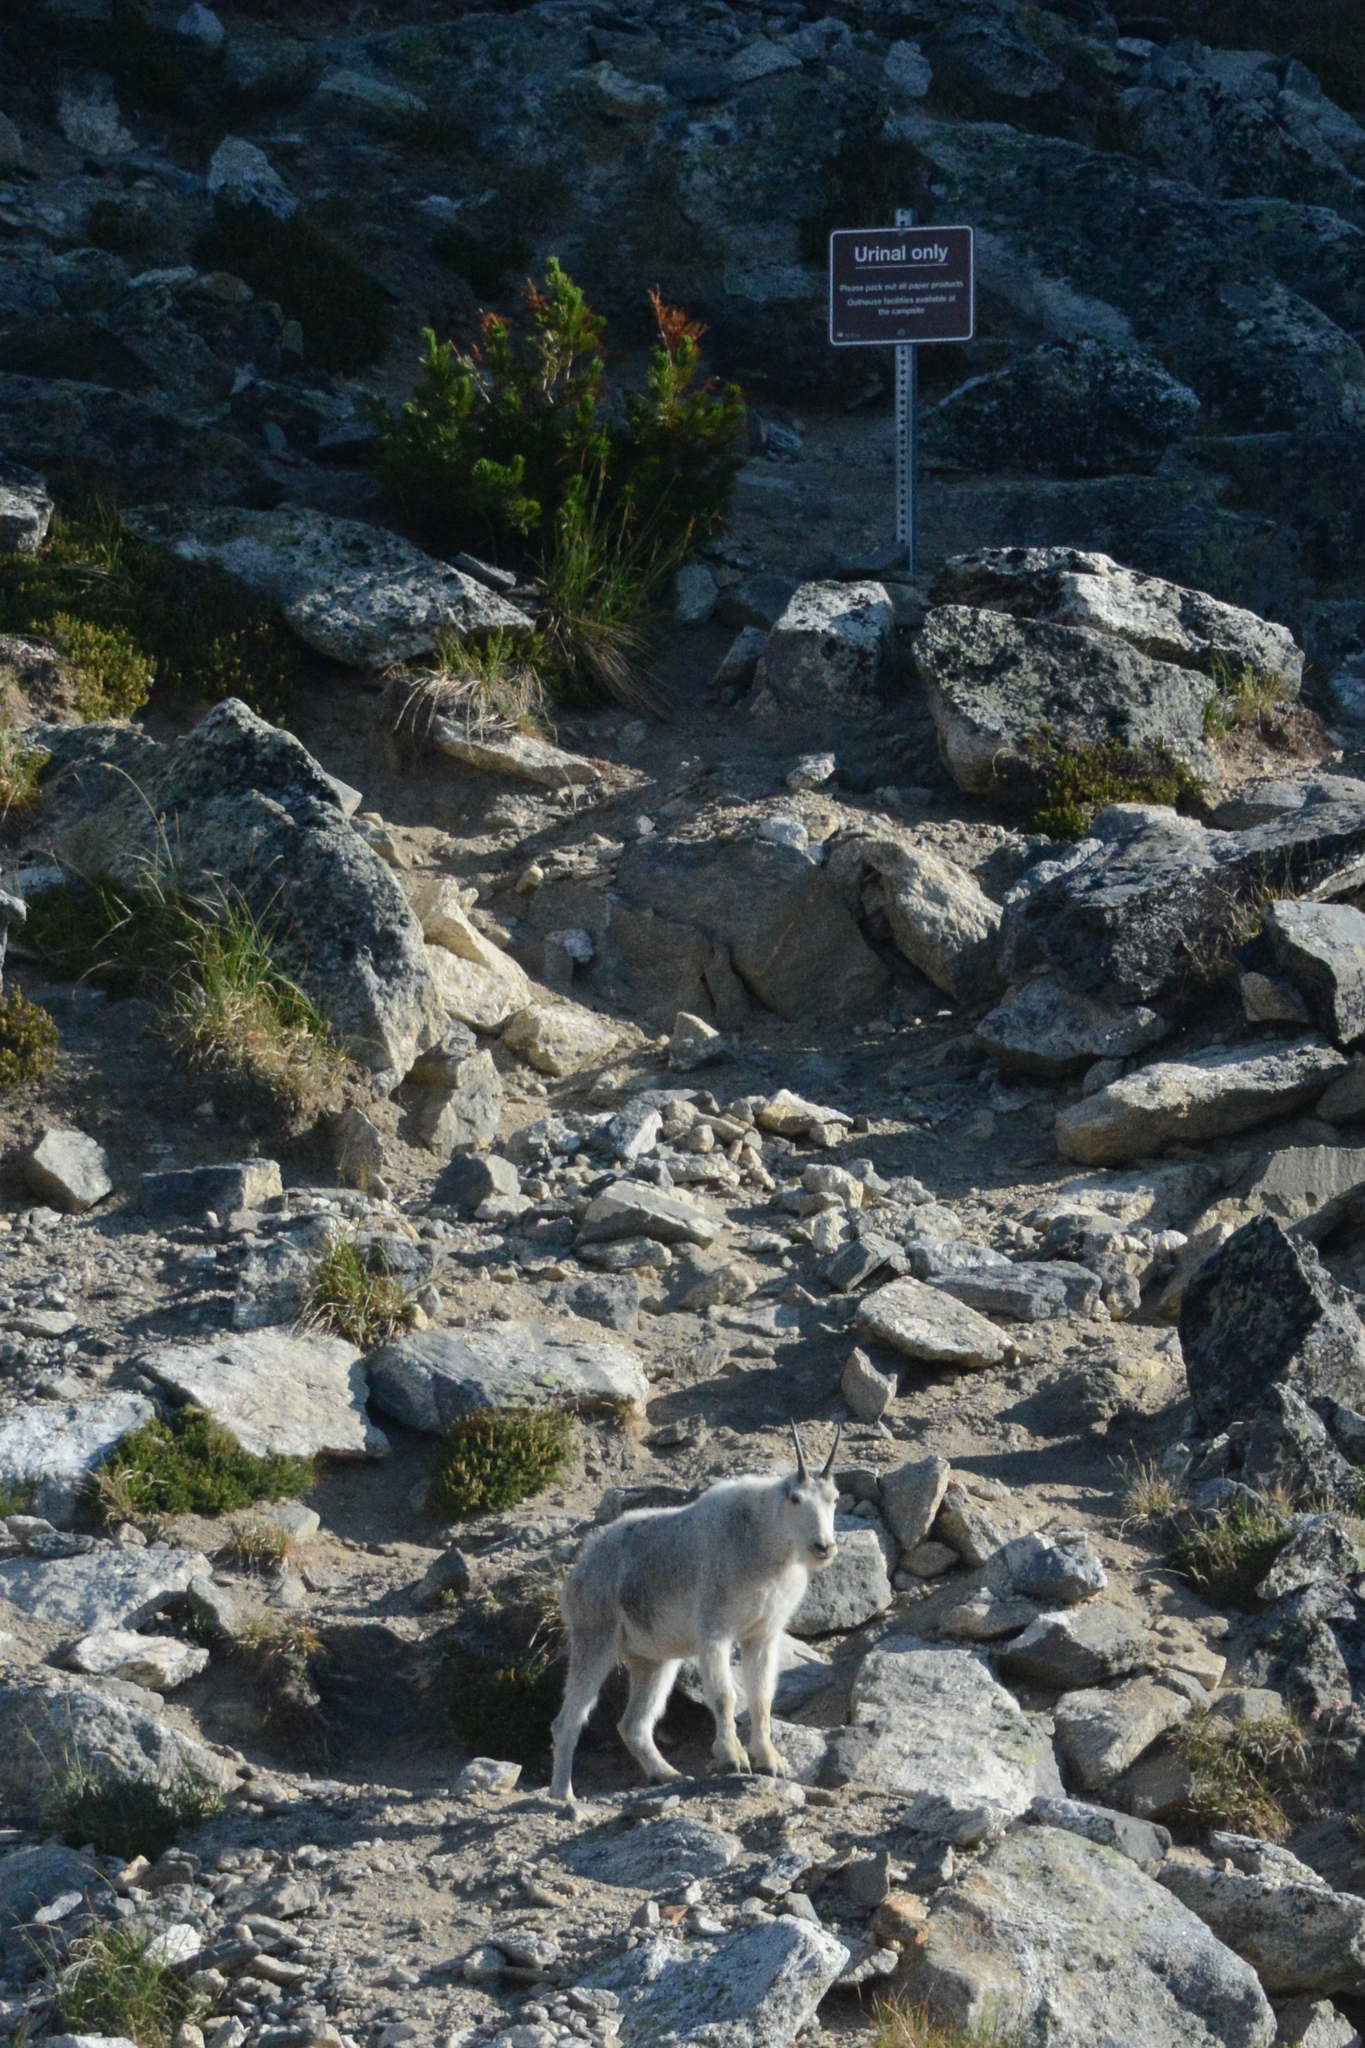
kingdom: Animalia
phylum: Chordata
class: Mammalia
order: Artiodactyla
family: Bovidae
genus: Oreamnos
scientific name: Oreamnos americanus
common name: Mountain goat
